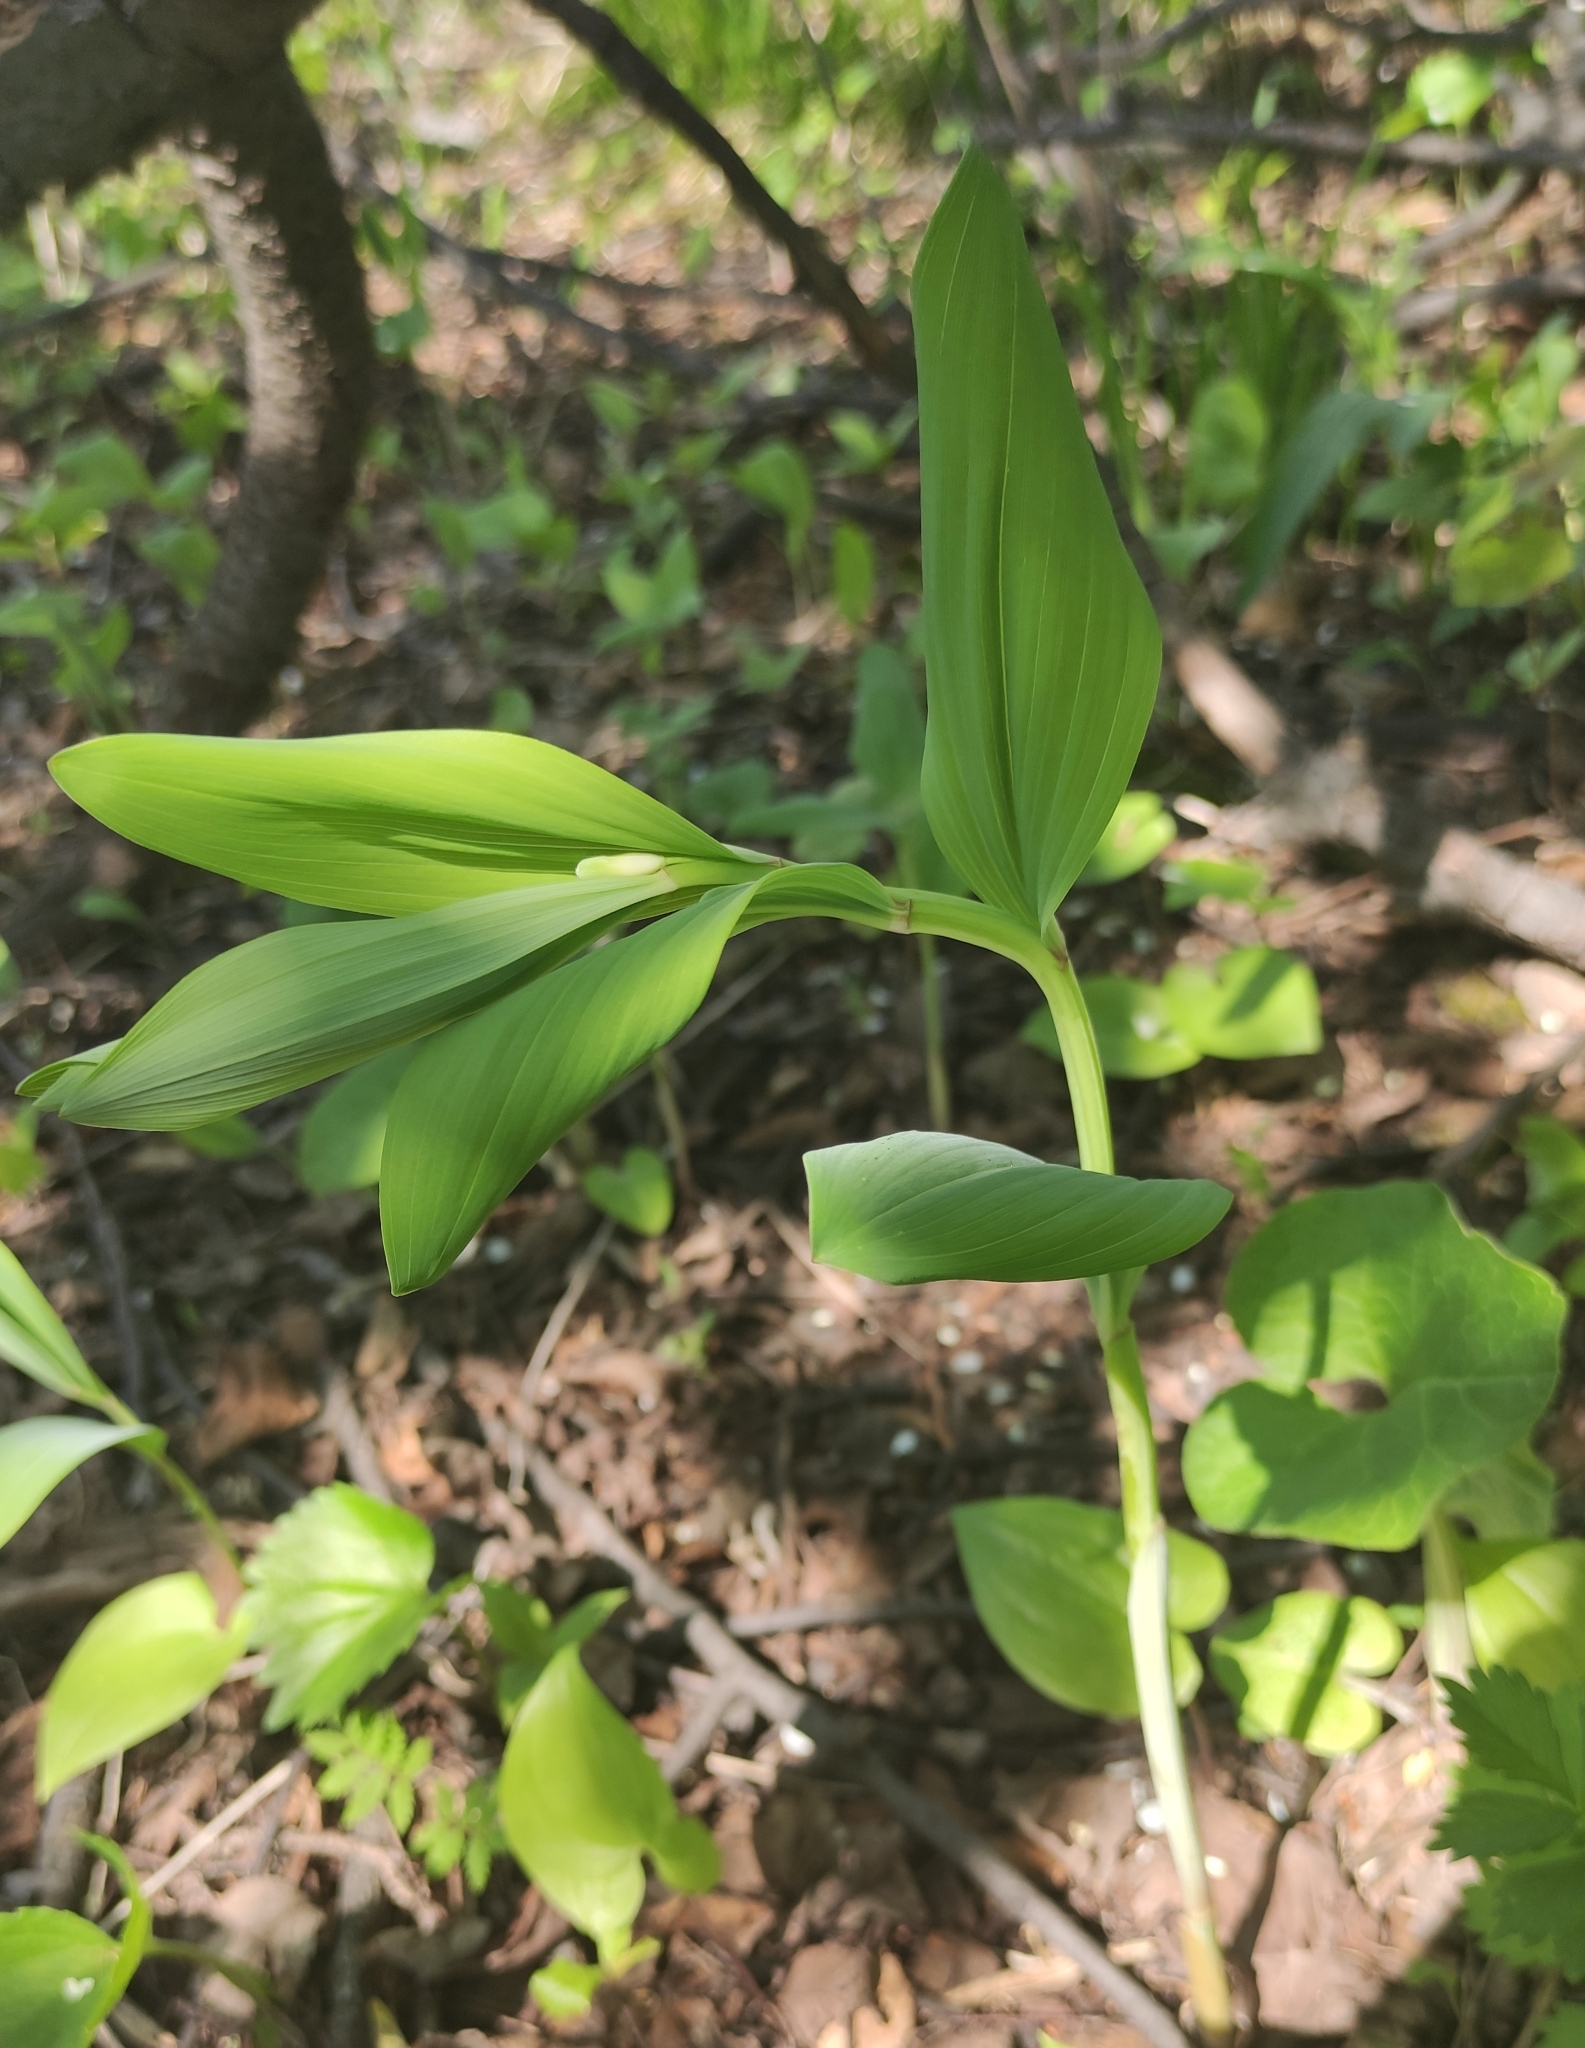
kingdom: Plantae
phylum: Tracheophyta
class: Liliopsida
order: Asparagales
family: Asparagaceae
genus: Polygonatum
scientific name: Polygonatum odoratum
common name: Angular solomon's-seal
